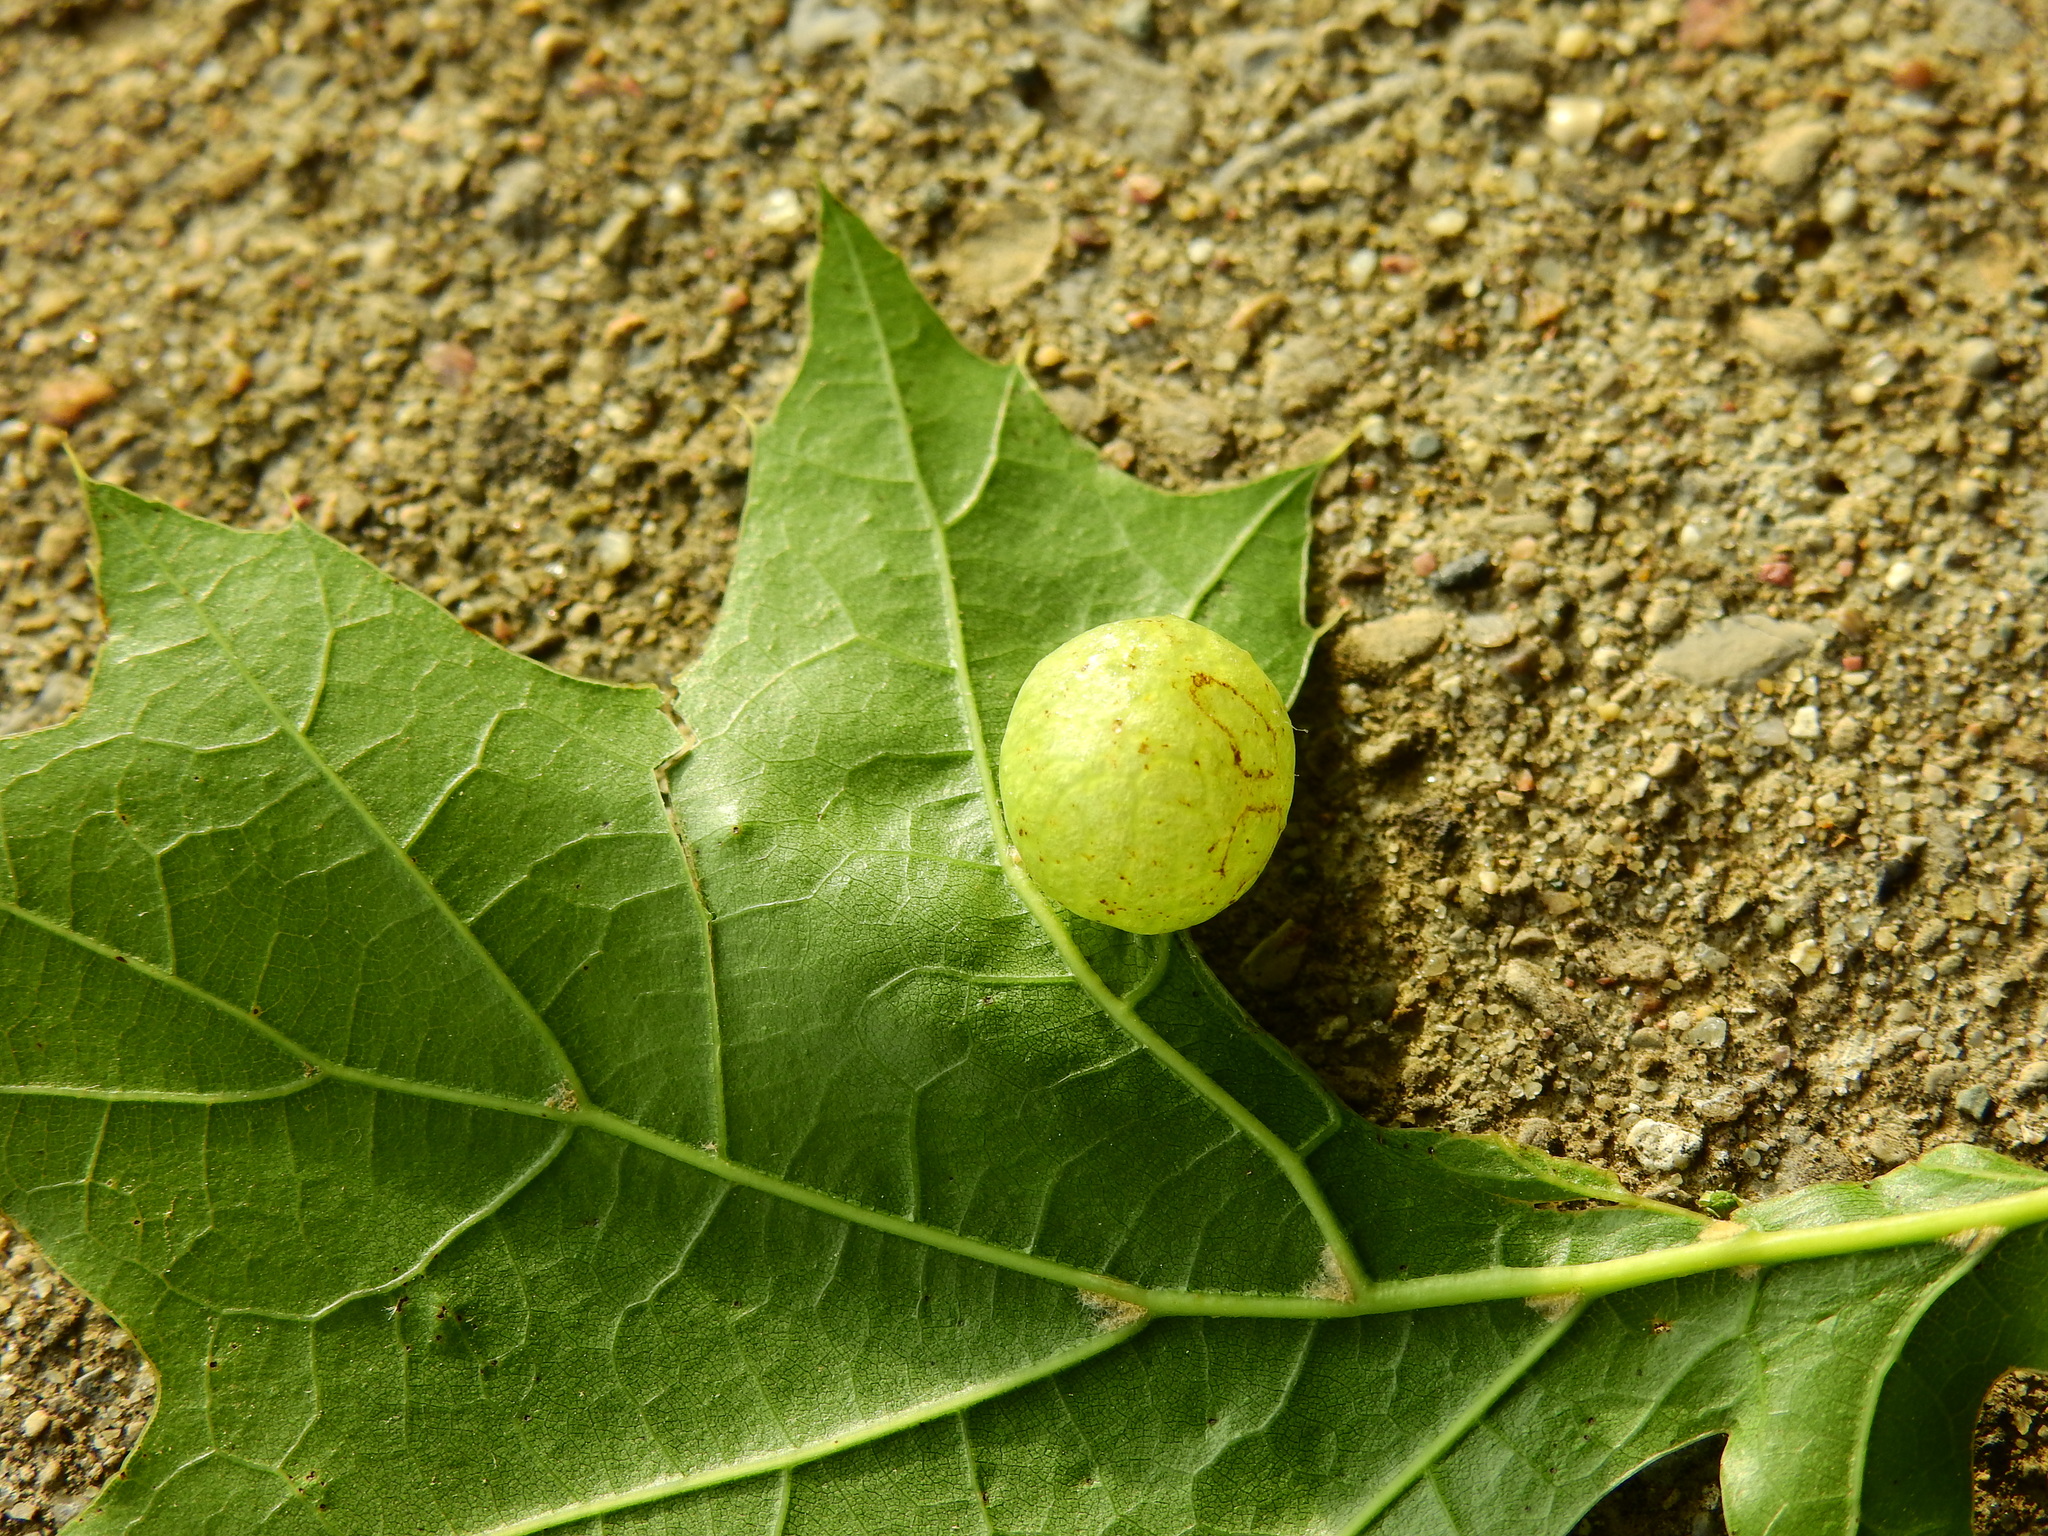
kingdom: Animalia
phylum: Arthropoda
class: Insecta
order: Hymenoptera
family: Cynipidae
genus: Amphibolips
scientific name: Amphibolips
